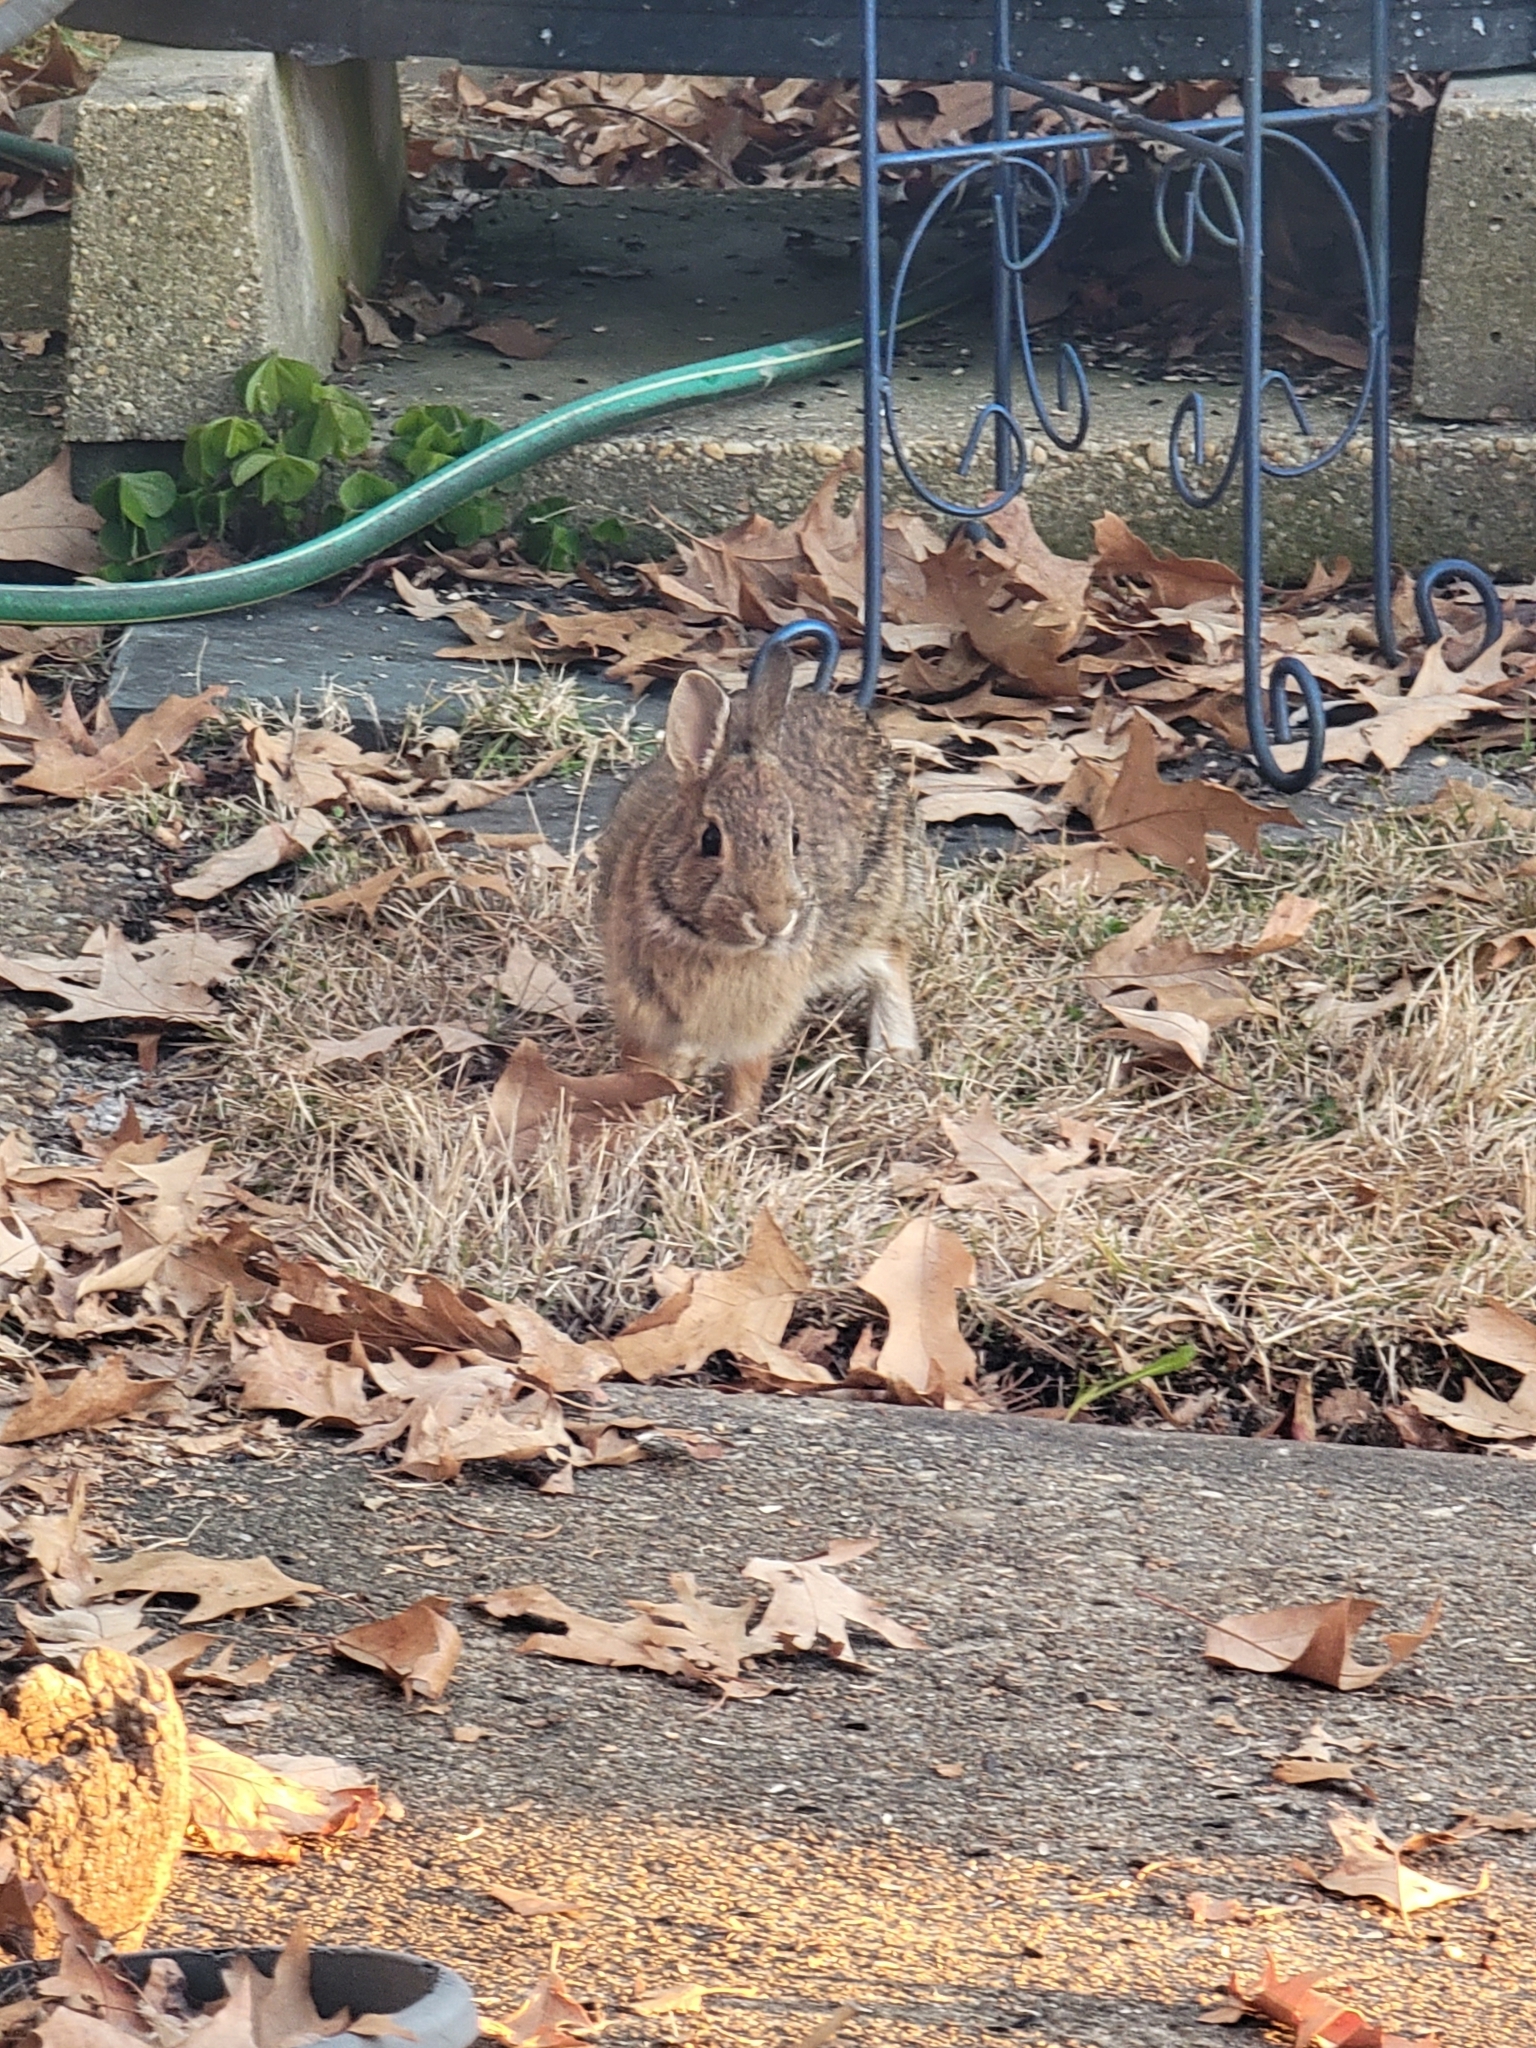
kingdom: Animalia
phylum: Chordata
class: Mammalia
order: Lagomorpha
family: Leporidae
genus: Sylvilagus
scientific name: Sylvilagus floridanus
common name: Eastern cottontail
